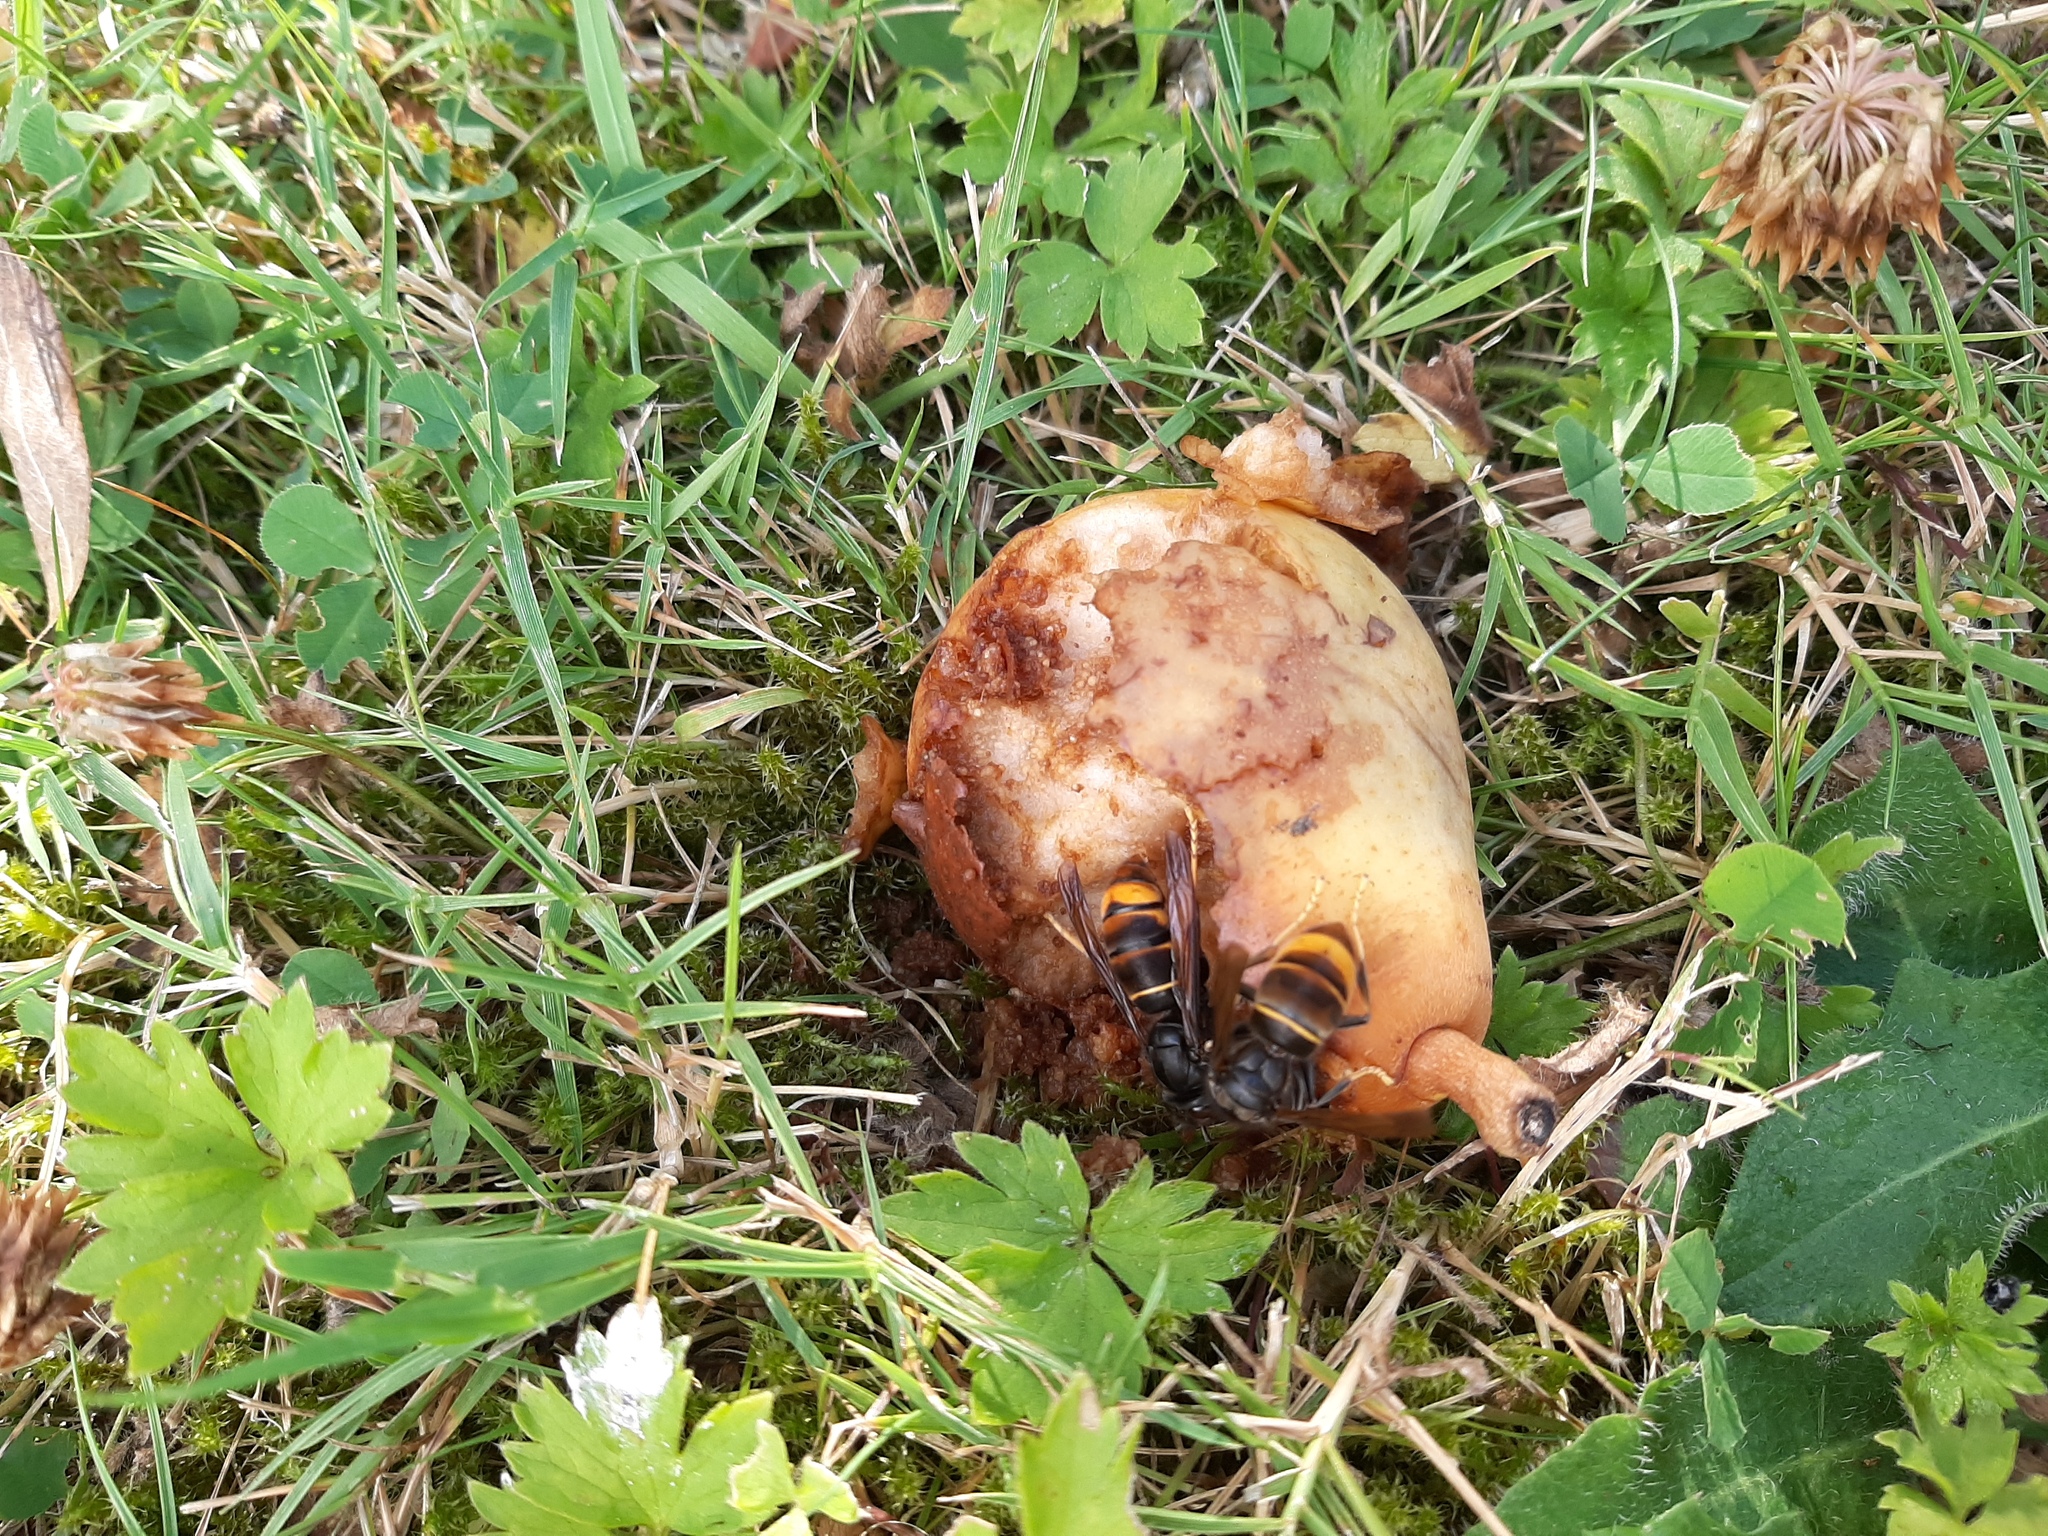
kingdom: Animalia
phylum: Arthropoda
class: Insecta
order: Hymenoptera
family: Vespidae
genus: Vespa
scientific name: Vespa velutina
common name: Asian hornet
